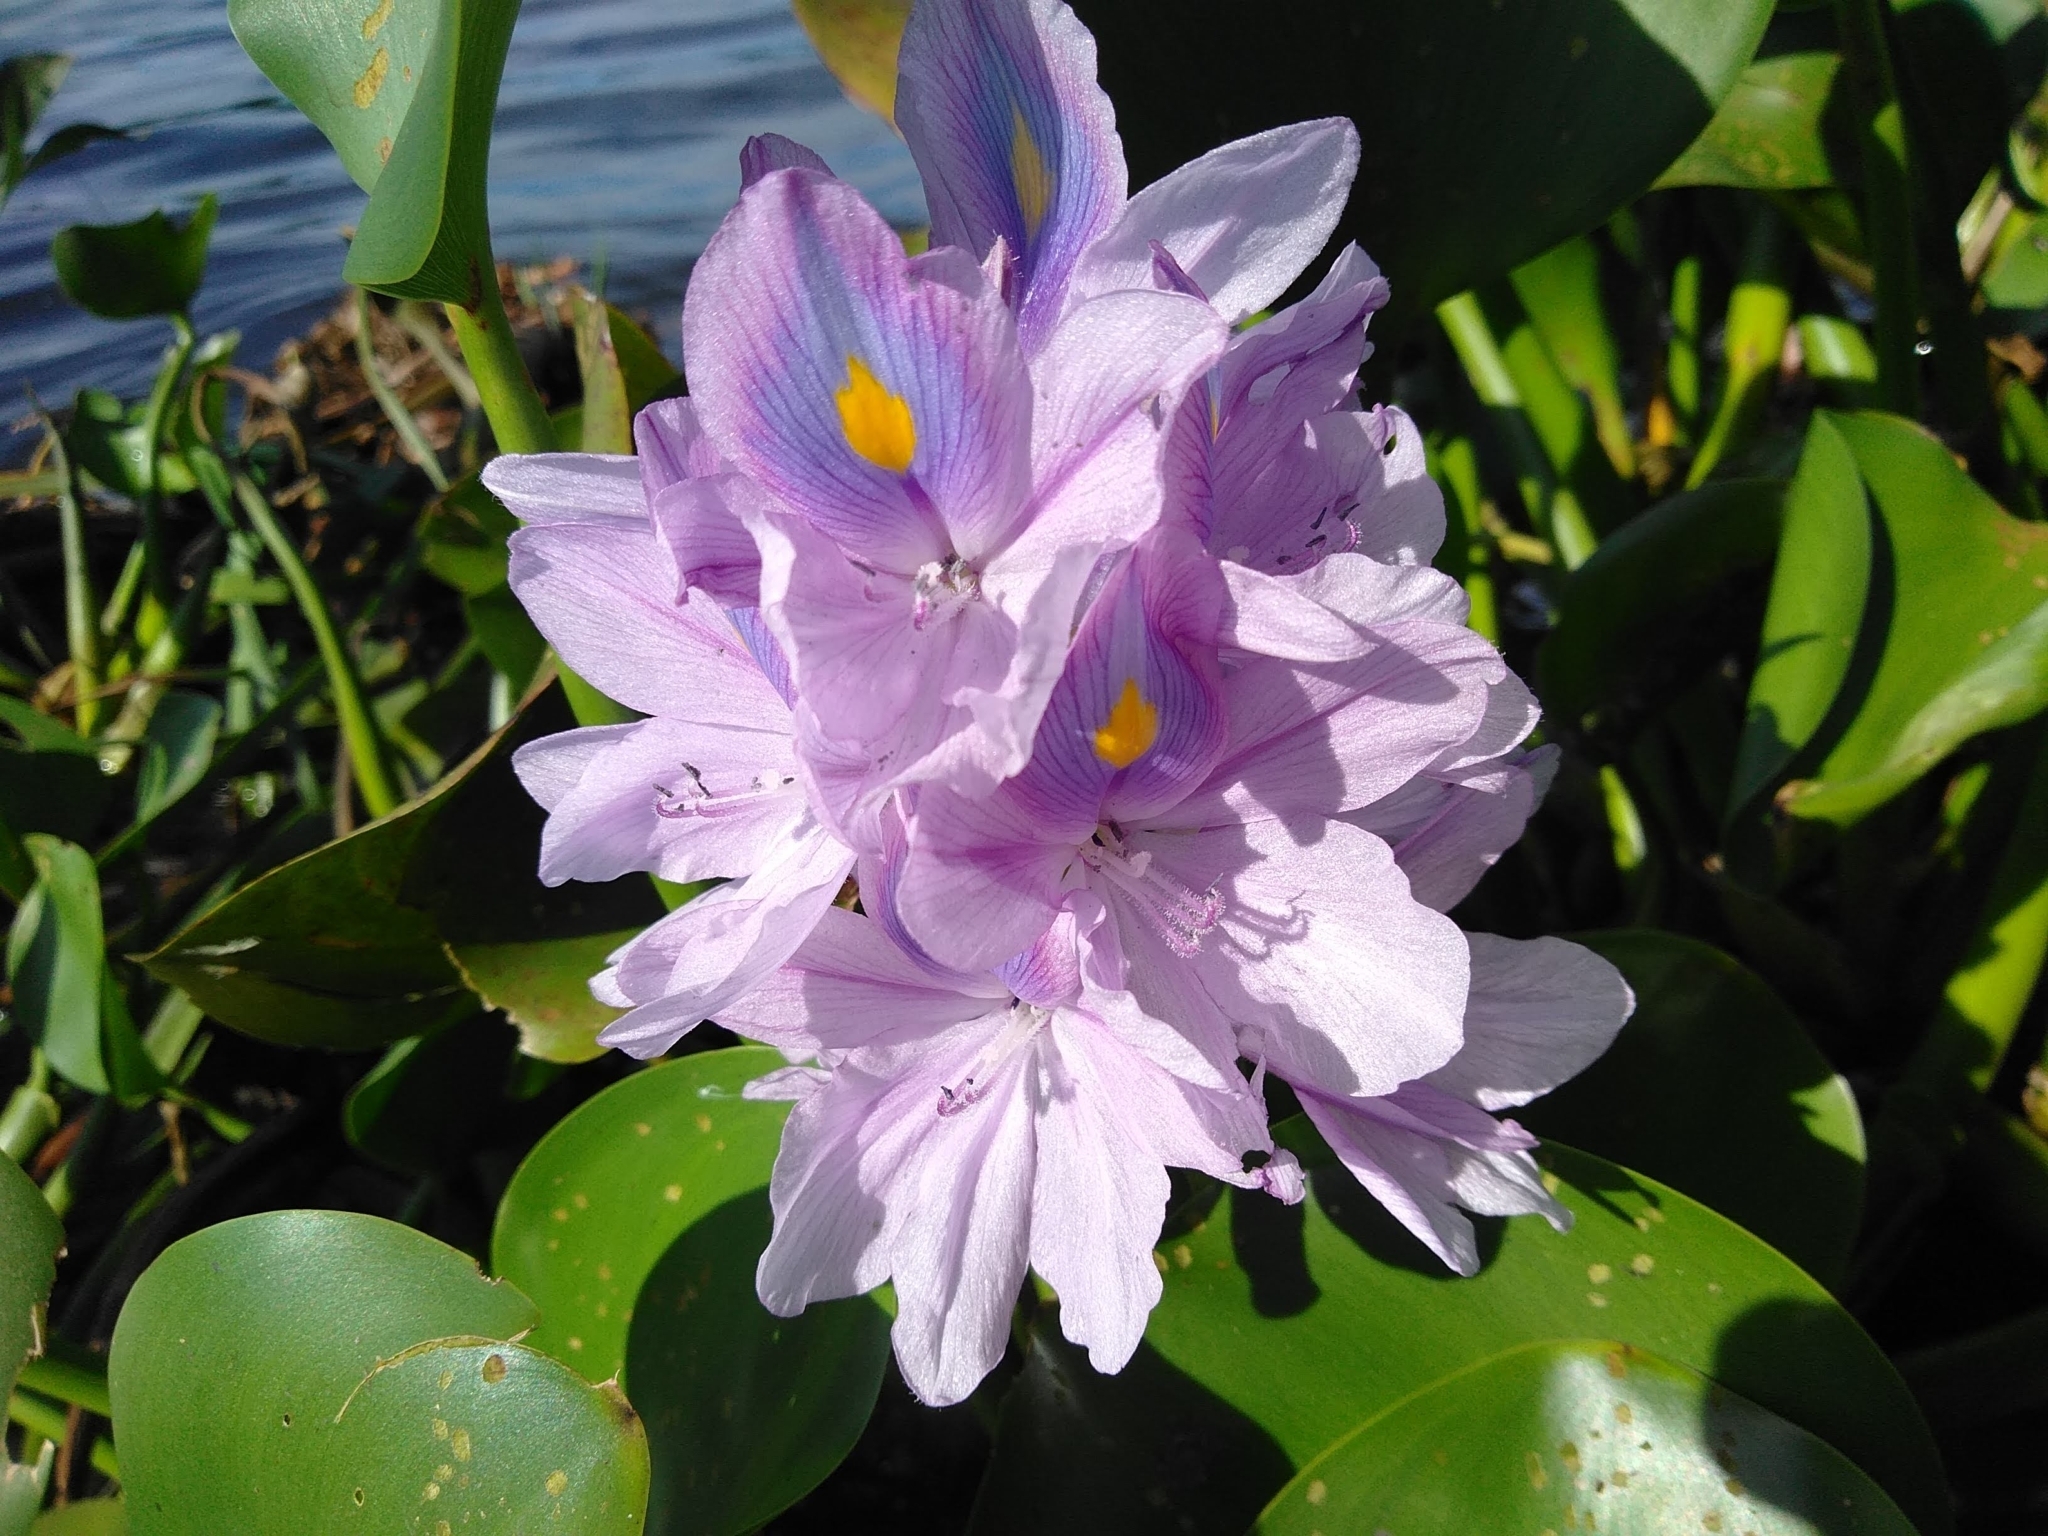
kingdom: Plantae
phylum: Tracheophyta
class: Liliopsida
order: Commelinales
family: Pontederiaceae
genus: Pontederia
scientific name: Pontederia crassipes
